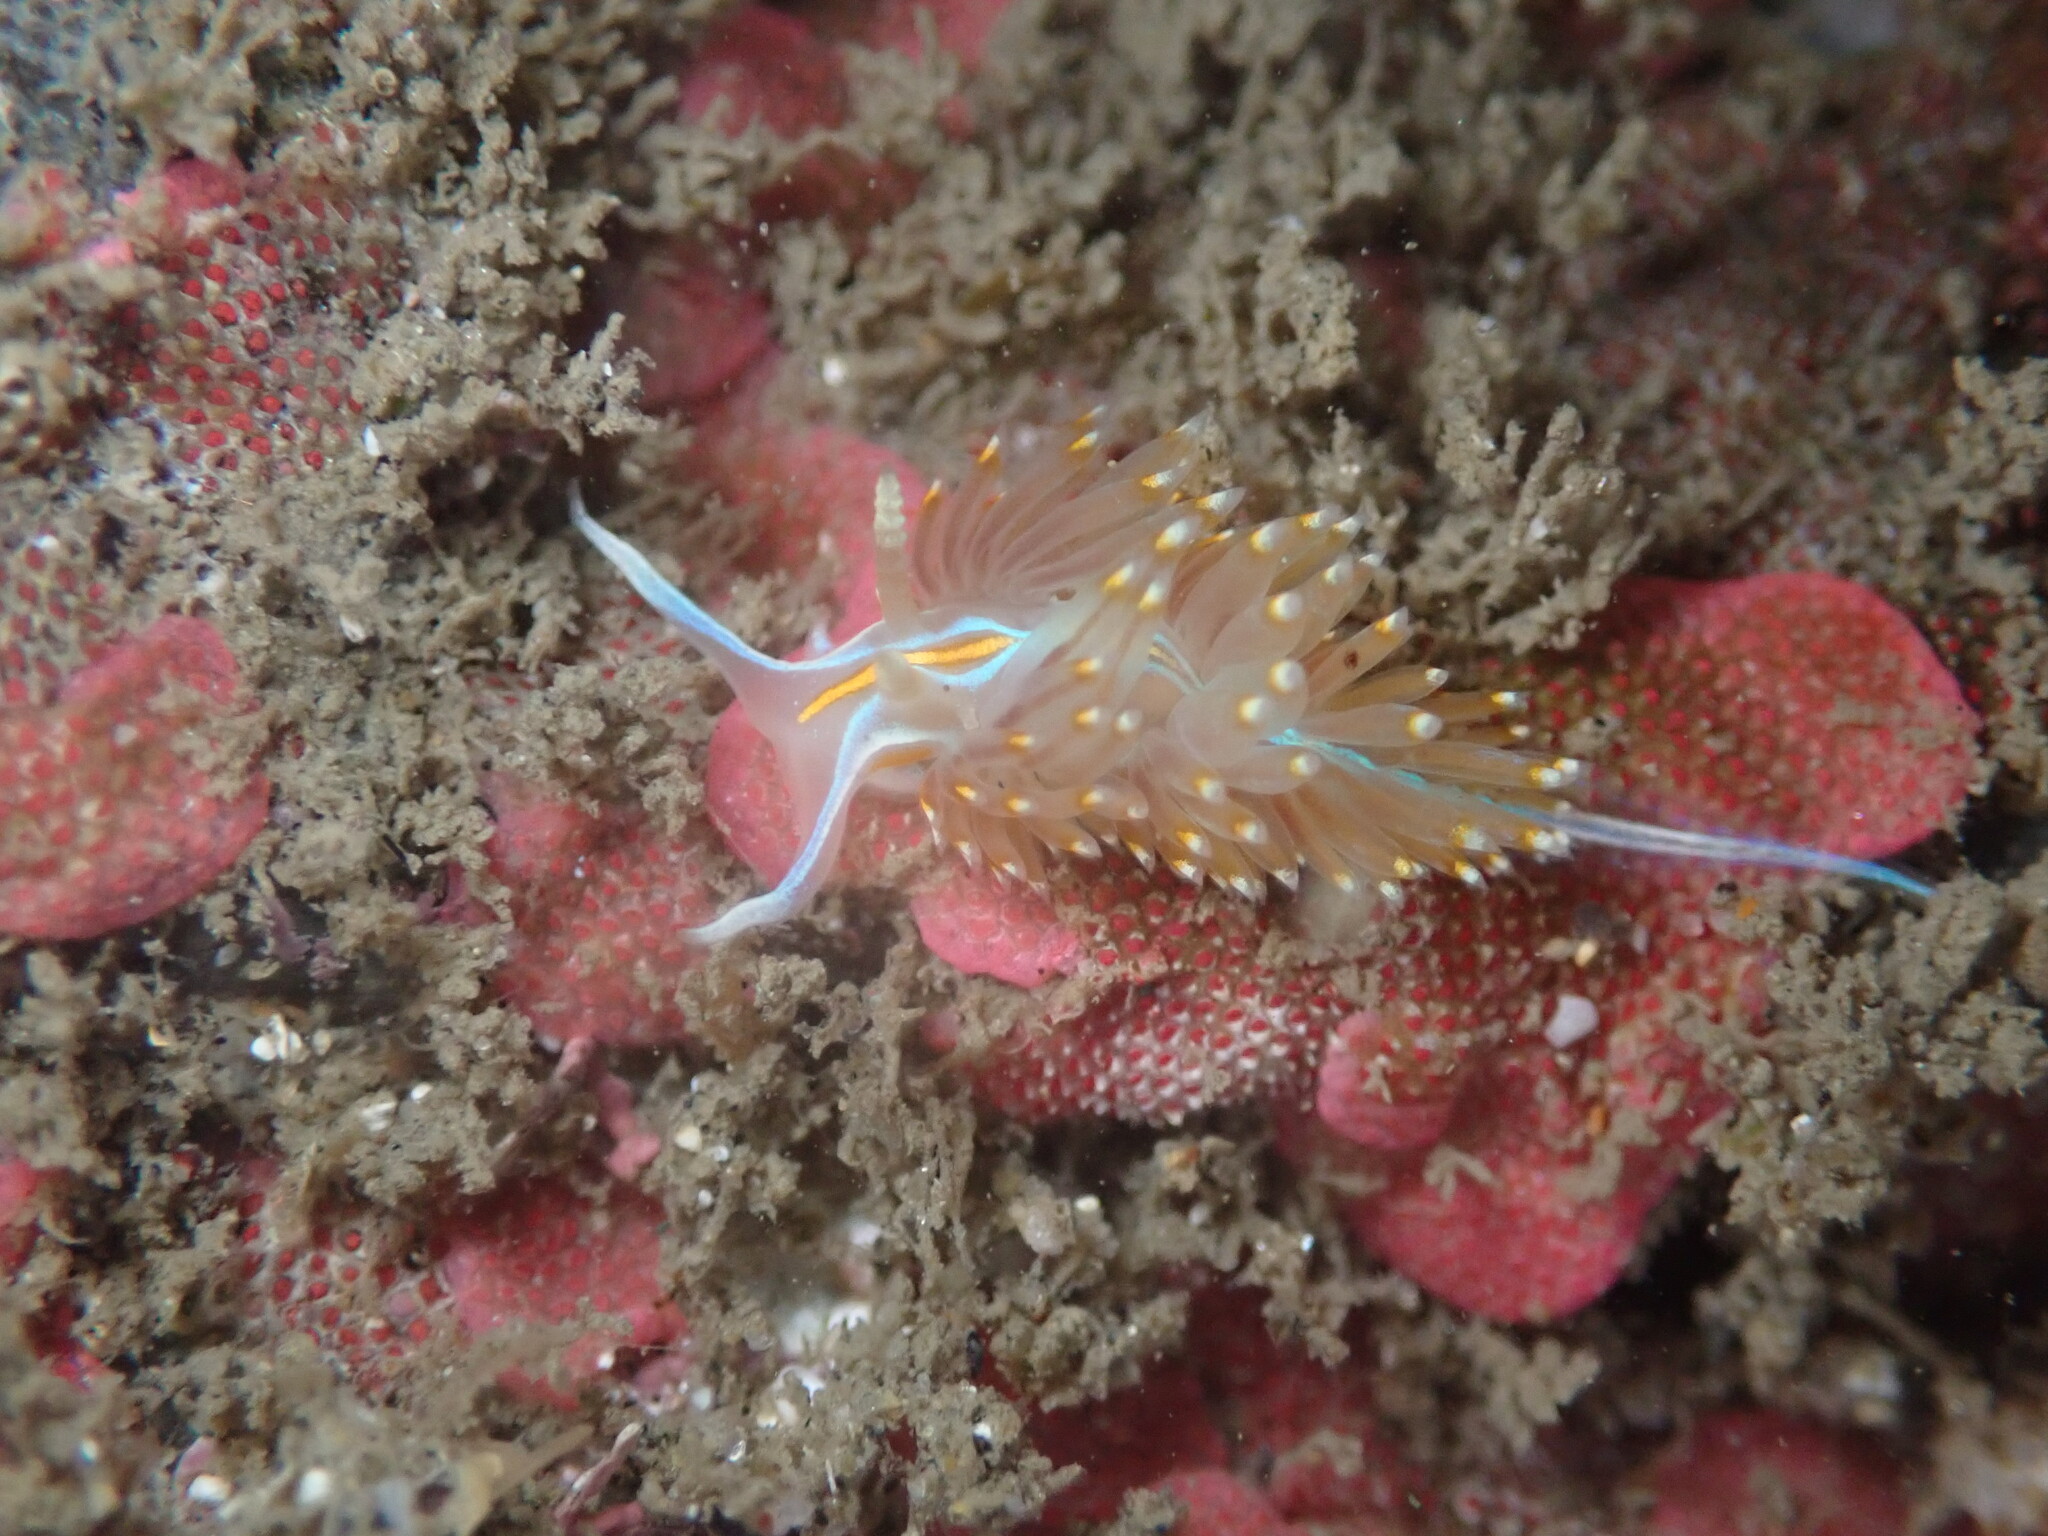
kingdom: Animalia
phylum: Mollusca
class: Gastropoda
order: Nudibranchia
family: Myrrhinidae
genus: Hermissenda
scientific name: Hermissenda opalescens
